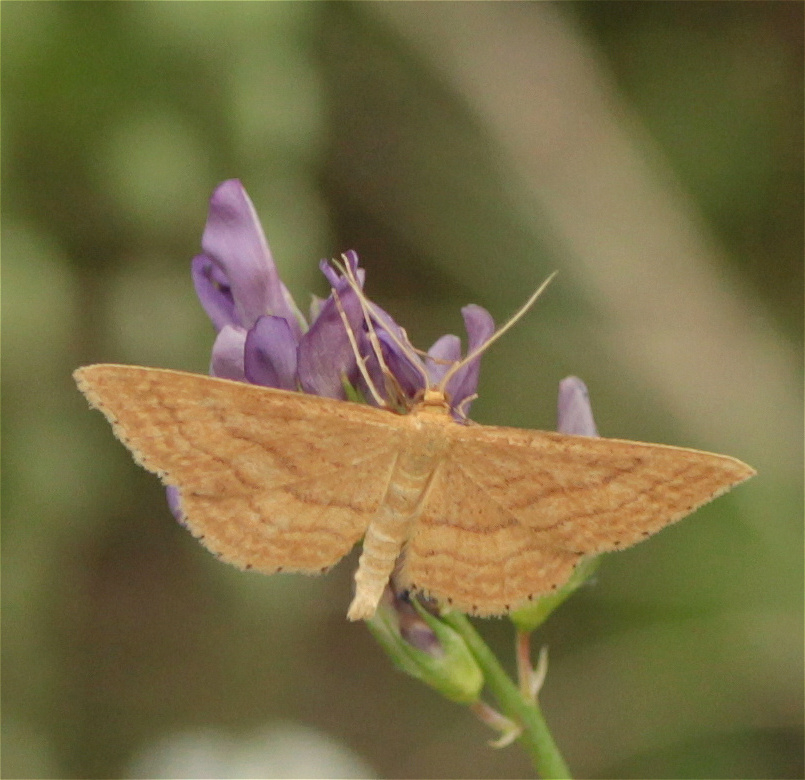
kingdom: Animalia
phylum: Arthropoda
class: Insecta
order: Lepidoptera
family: Geometridae
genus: Idaea
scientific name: Idaea ochrata
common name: Bright wave
